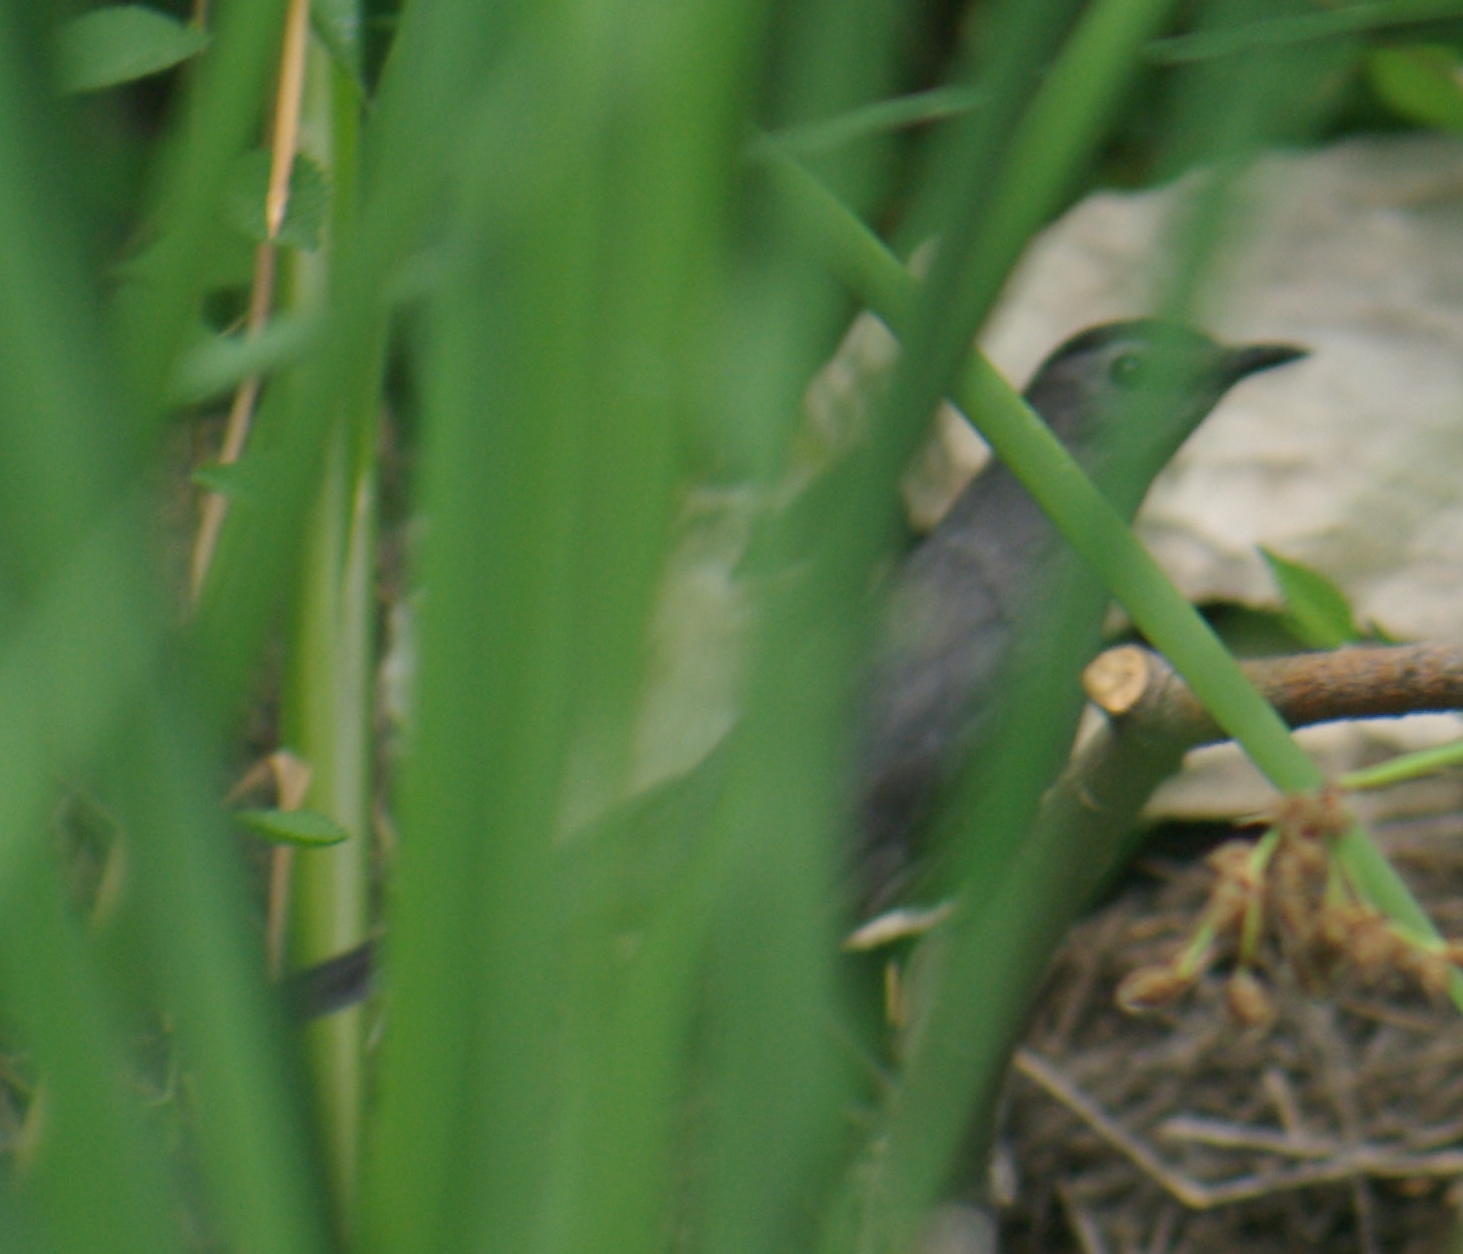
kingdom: Animalia
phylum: Chordata
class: Aves
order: Passeriformes
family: Mimidae
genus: Dumetella
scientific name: Dumetella carolinensis
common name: Gray catbird
